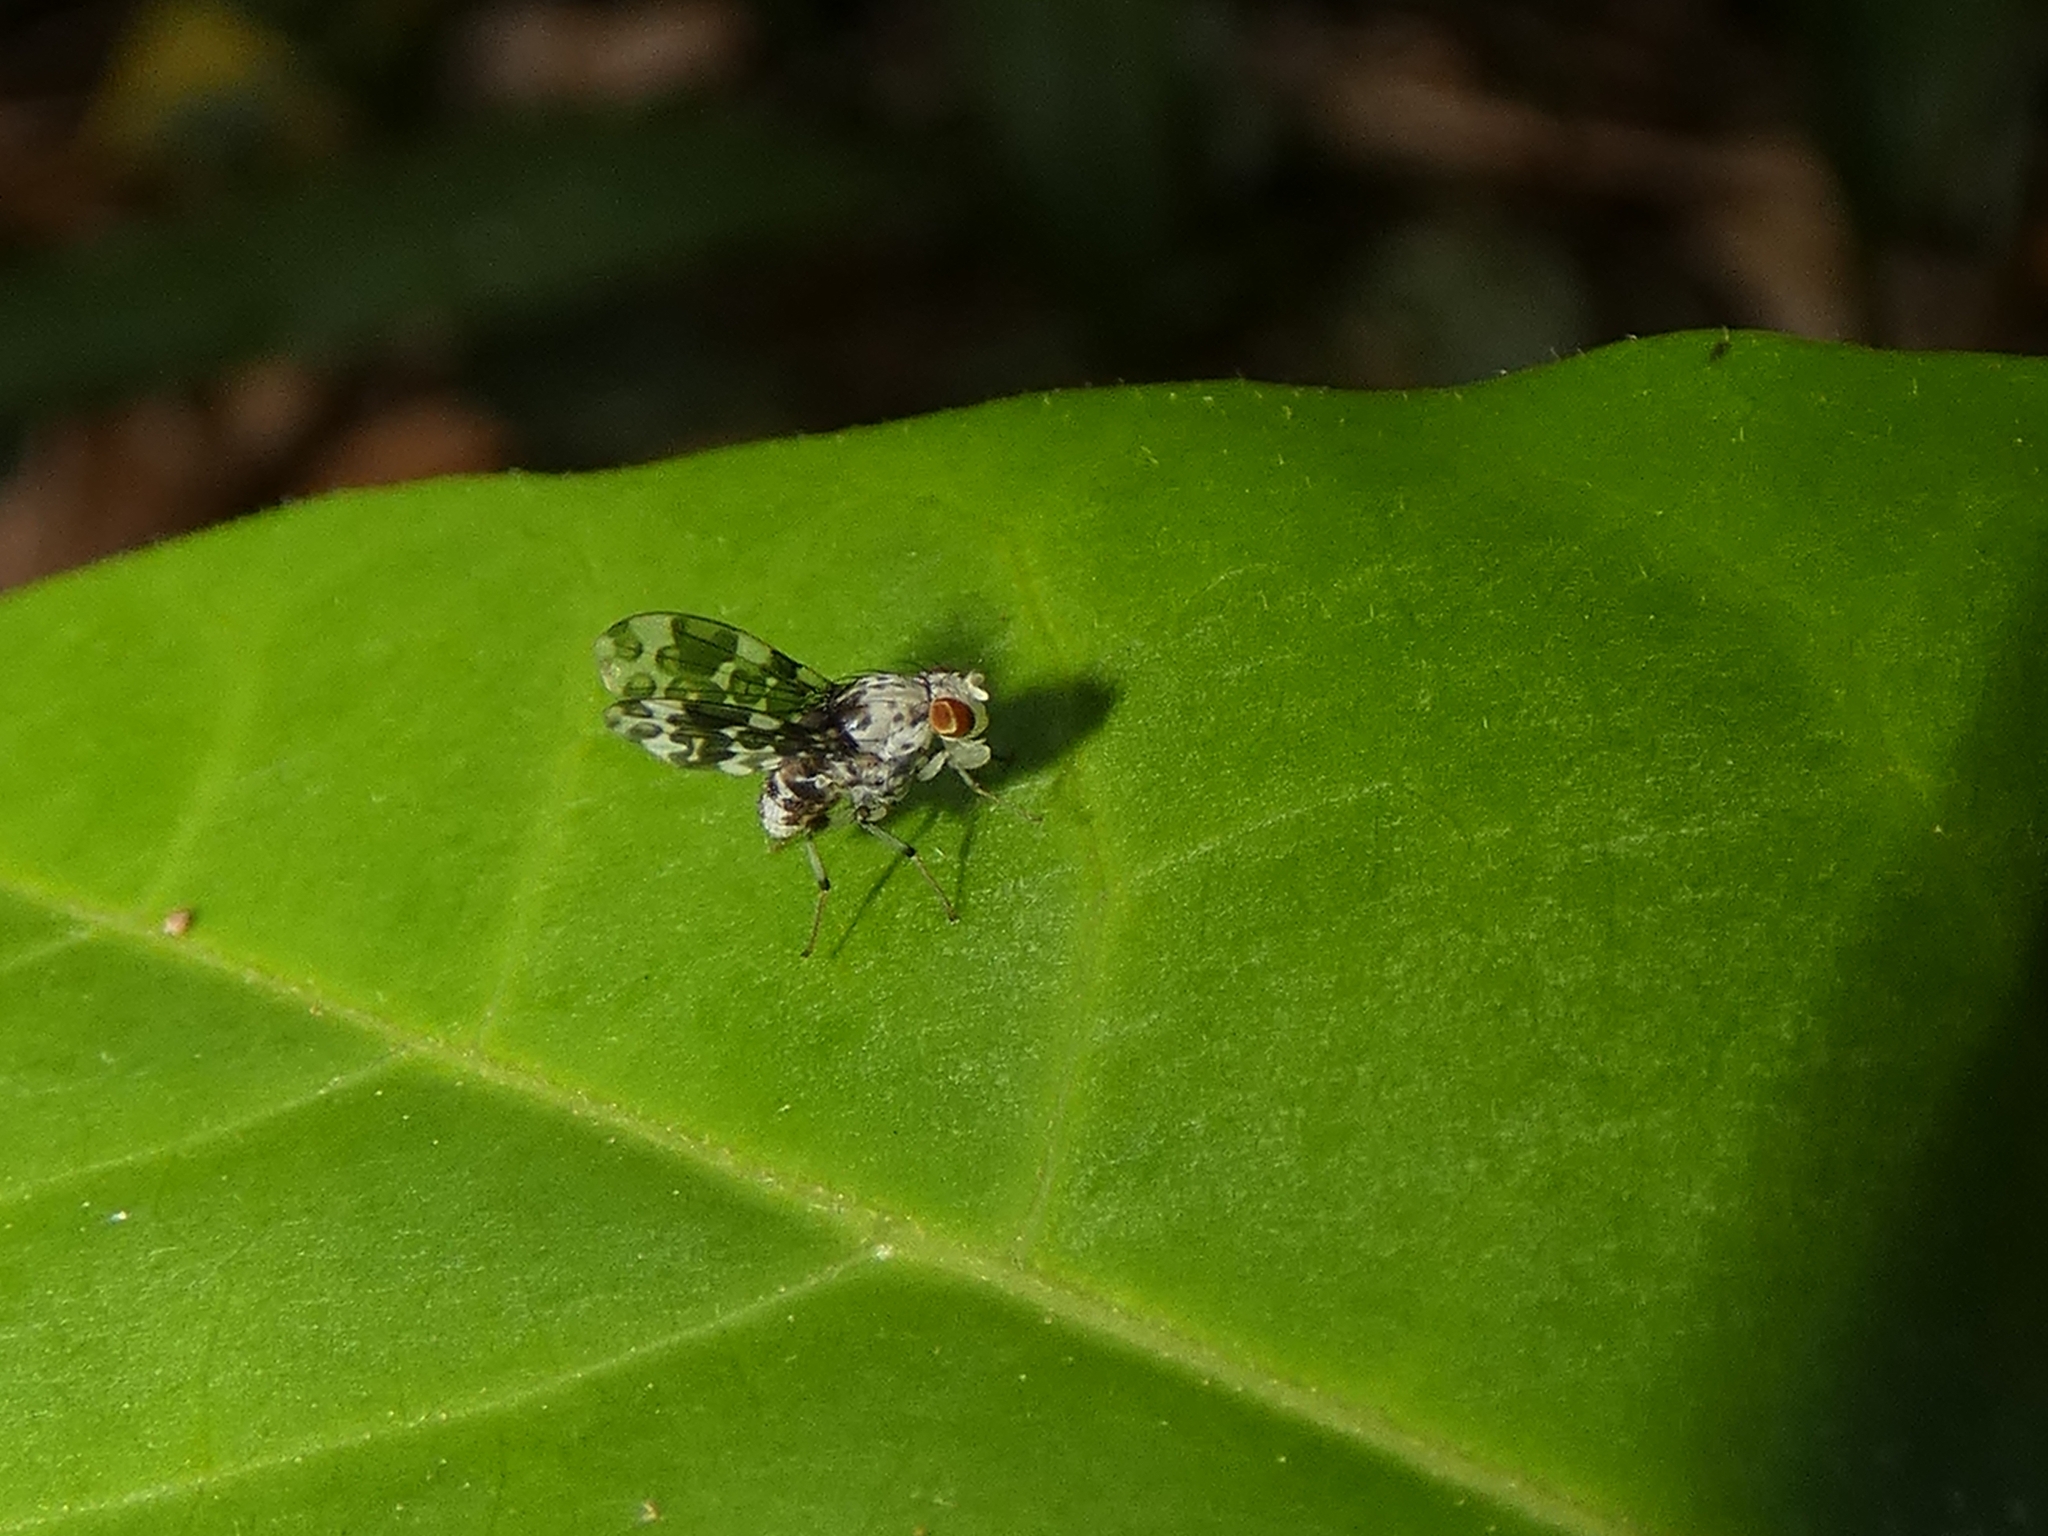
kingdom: Animalia
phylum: Arthropoda
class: Insecta
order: Diptera
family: Lauxaniidae
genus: Mettinia
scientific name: Mettinia suboceliifera
